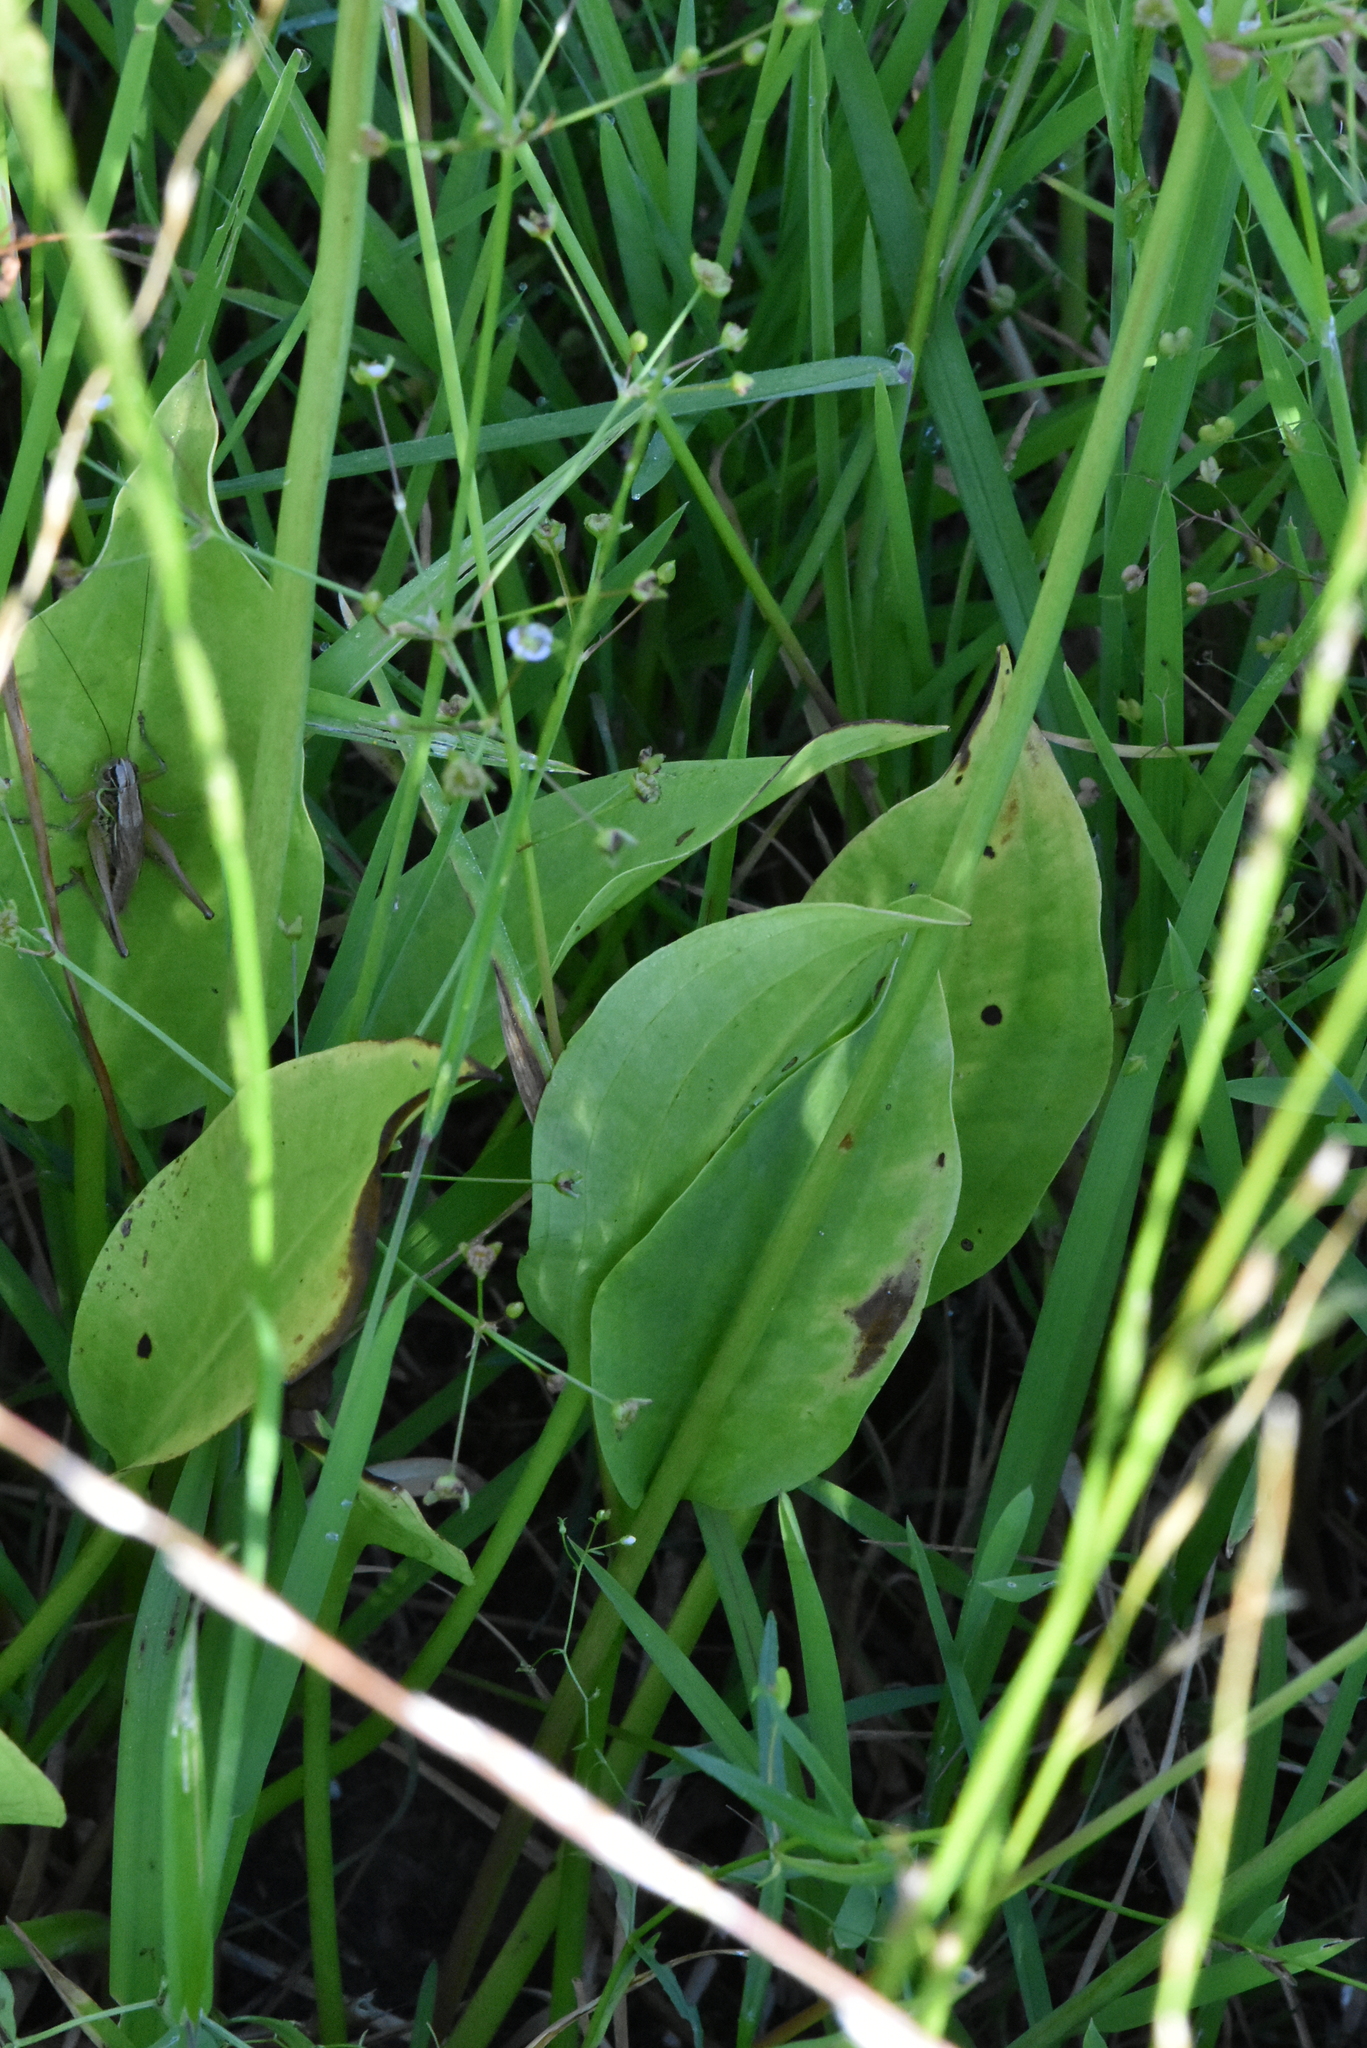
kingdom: Plantae
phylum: Tracheophyta
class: Liliopsida
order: Alismatales
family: Alismataceae
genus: Alisma
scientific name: Alisma plantago-aquatica
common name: Water-plantain
